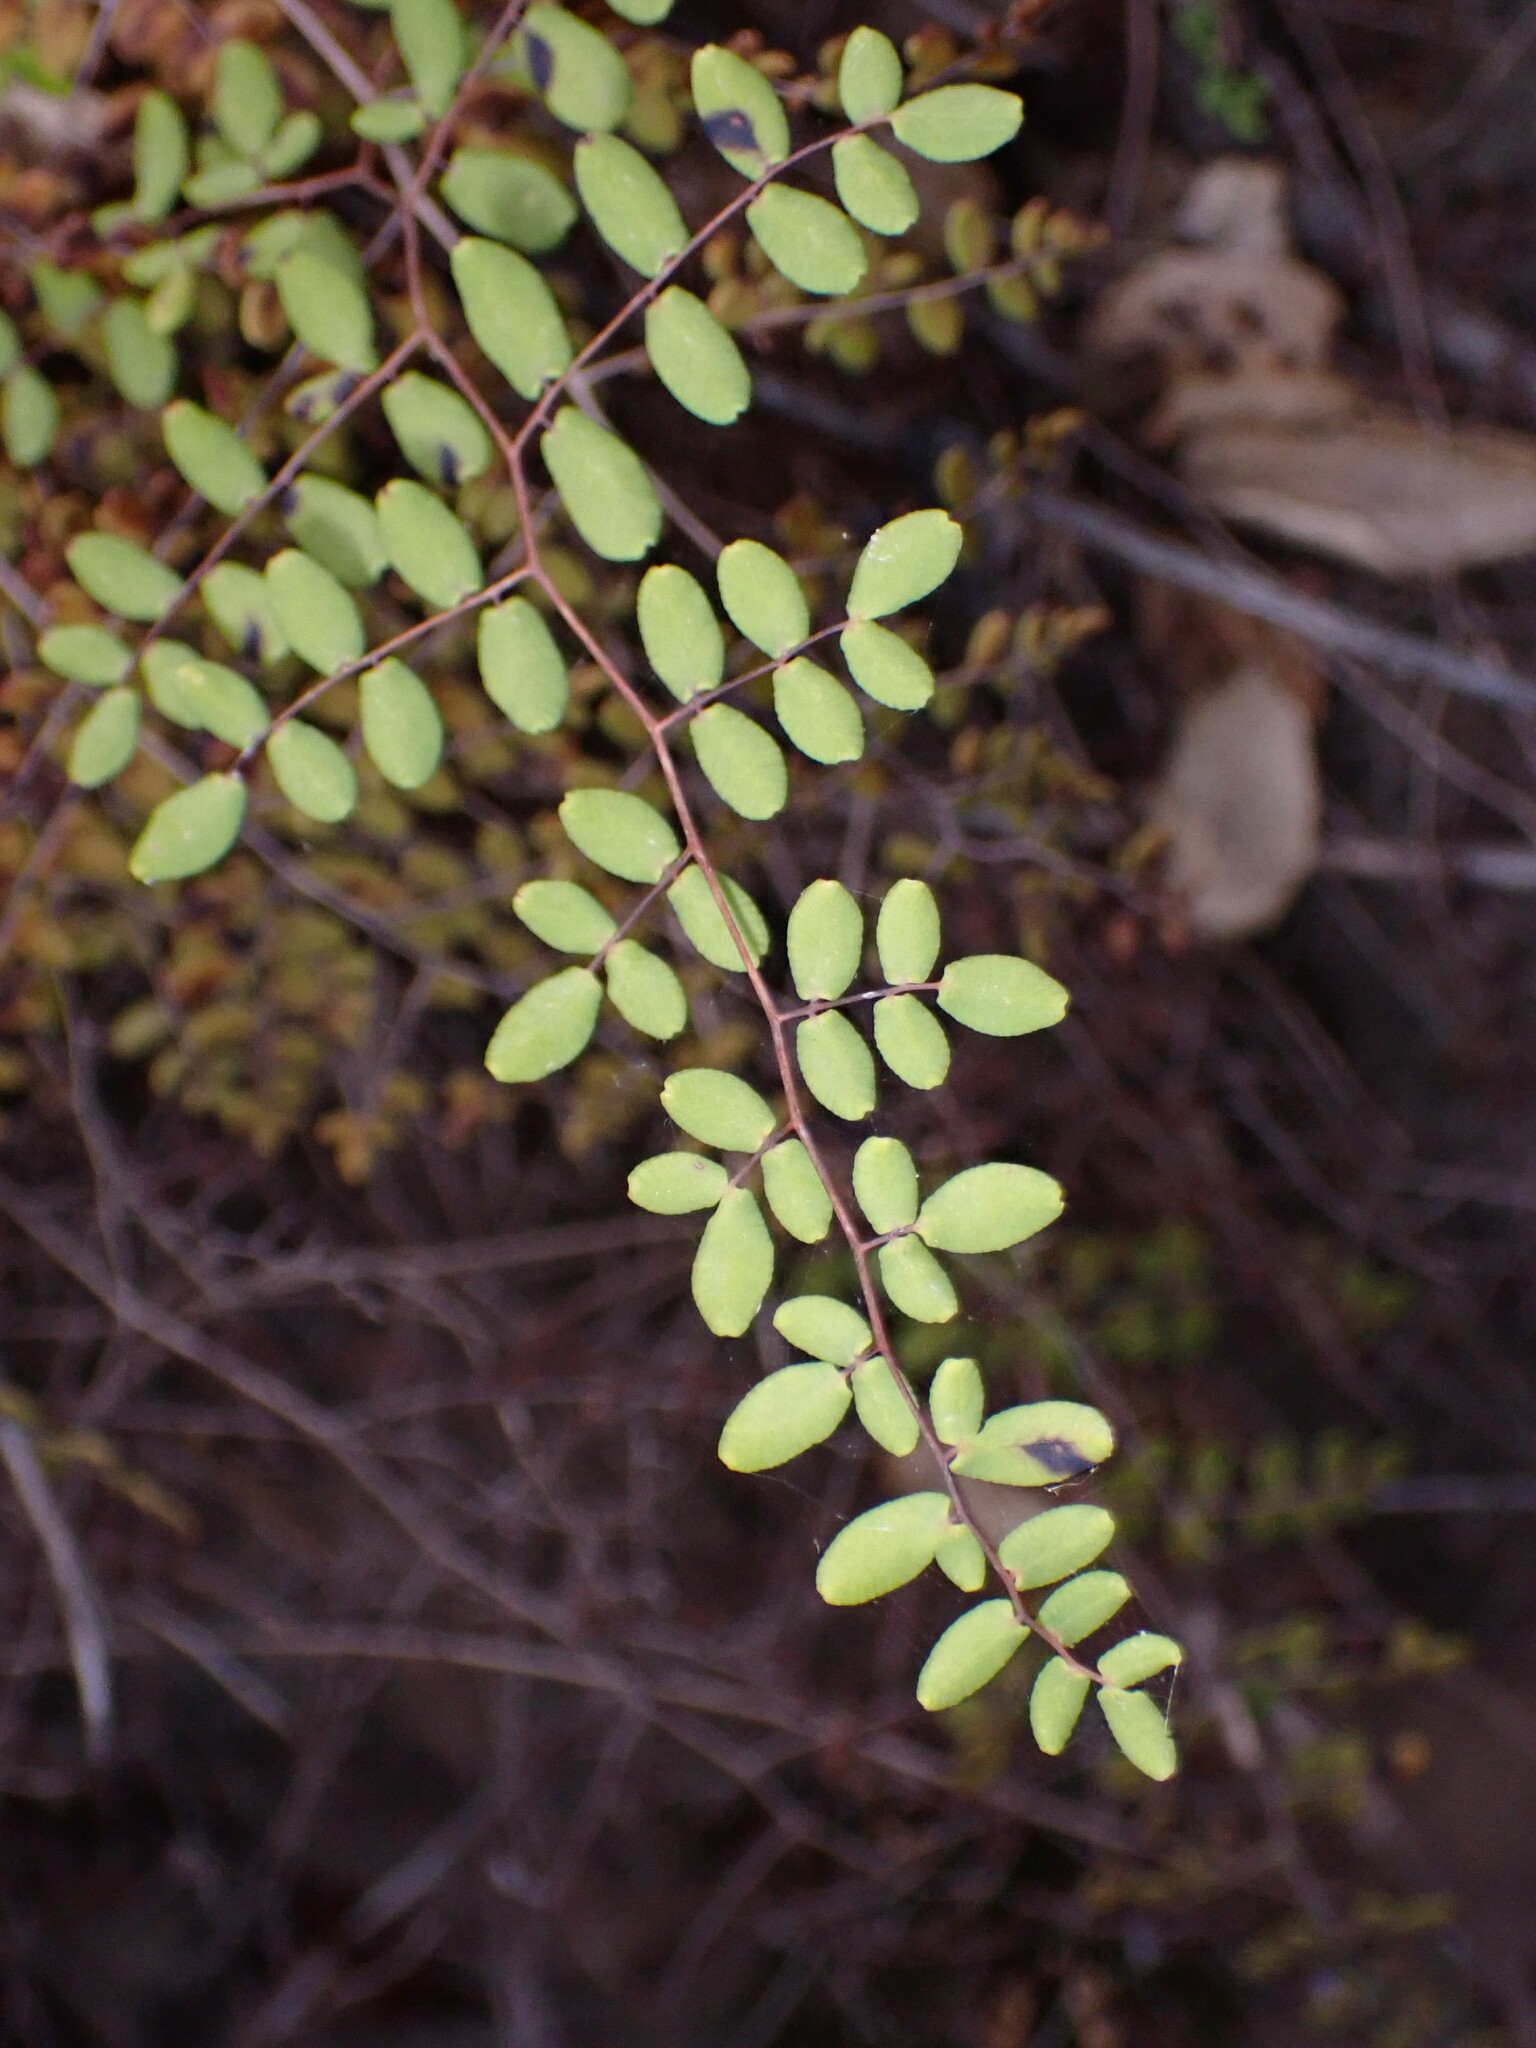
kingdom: Plantae
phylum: Tracheophyta
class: Polypodiopsida
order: Polypodiales
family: Pteridaceae
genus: Pellaea
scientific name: Pellaea andromedifolia
